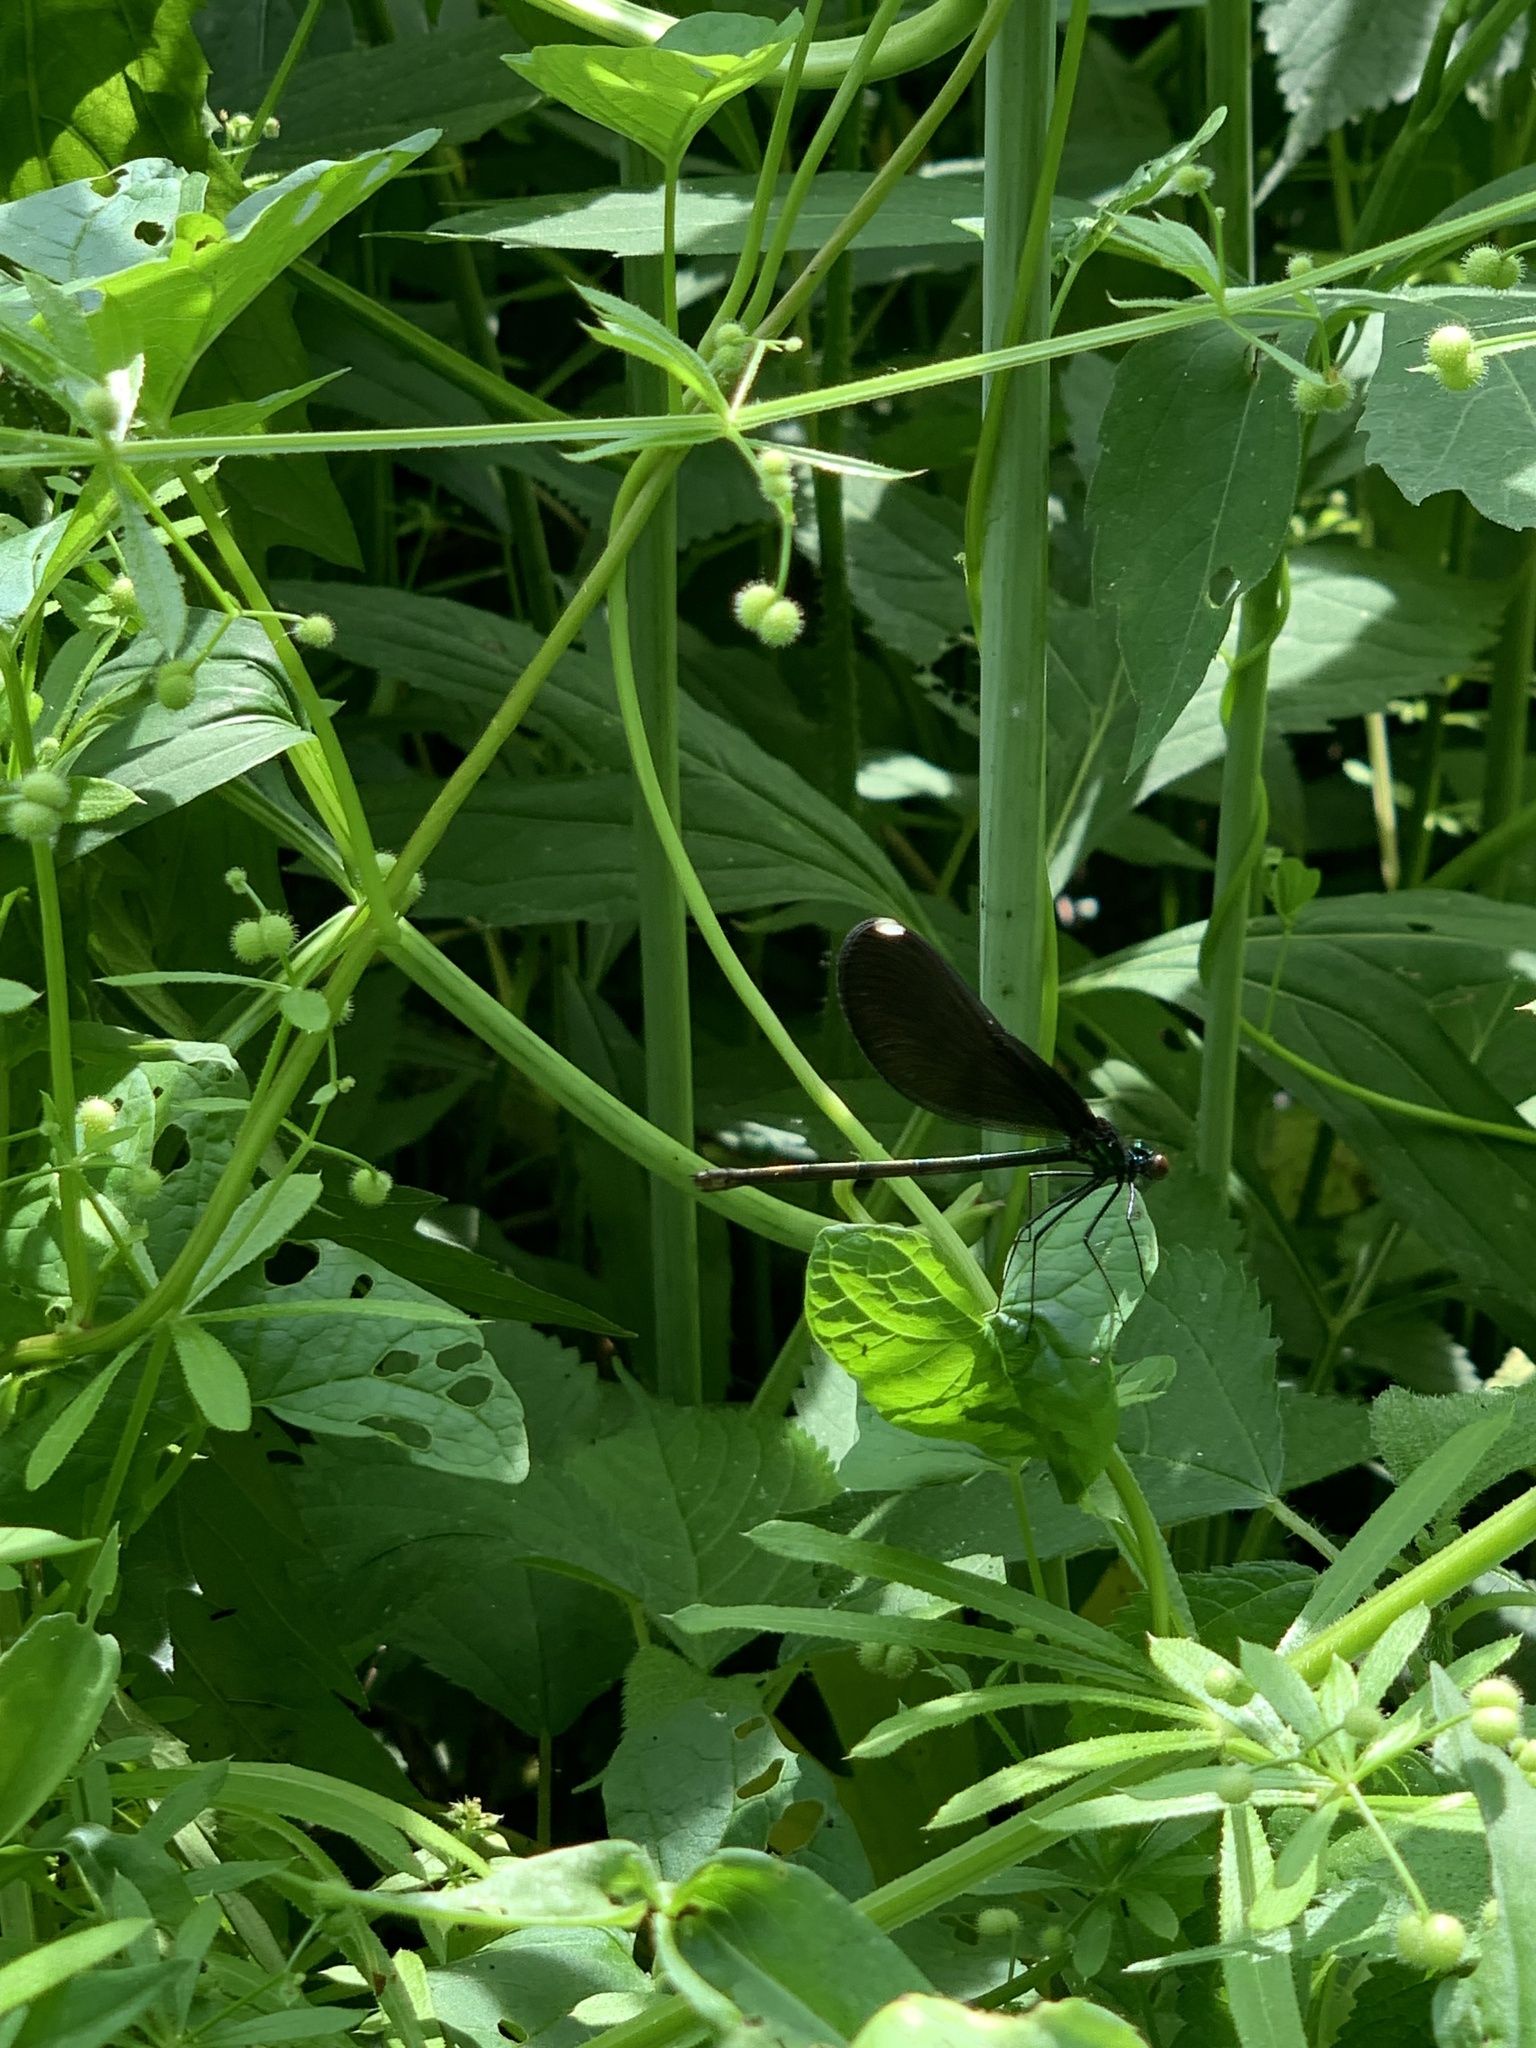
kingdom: Animalia
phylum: Arthropoda
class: Insecta
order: Odonata
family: Calopterygidae
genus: Calopteryx
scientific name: Calopteryx maculata
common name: Ebony jewelwing
